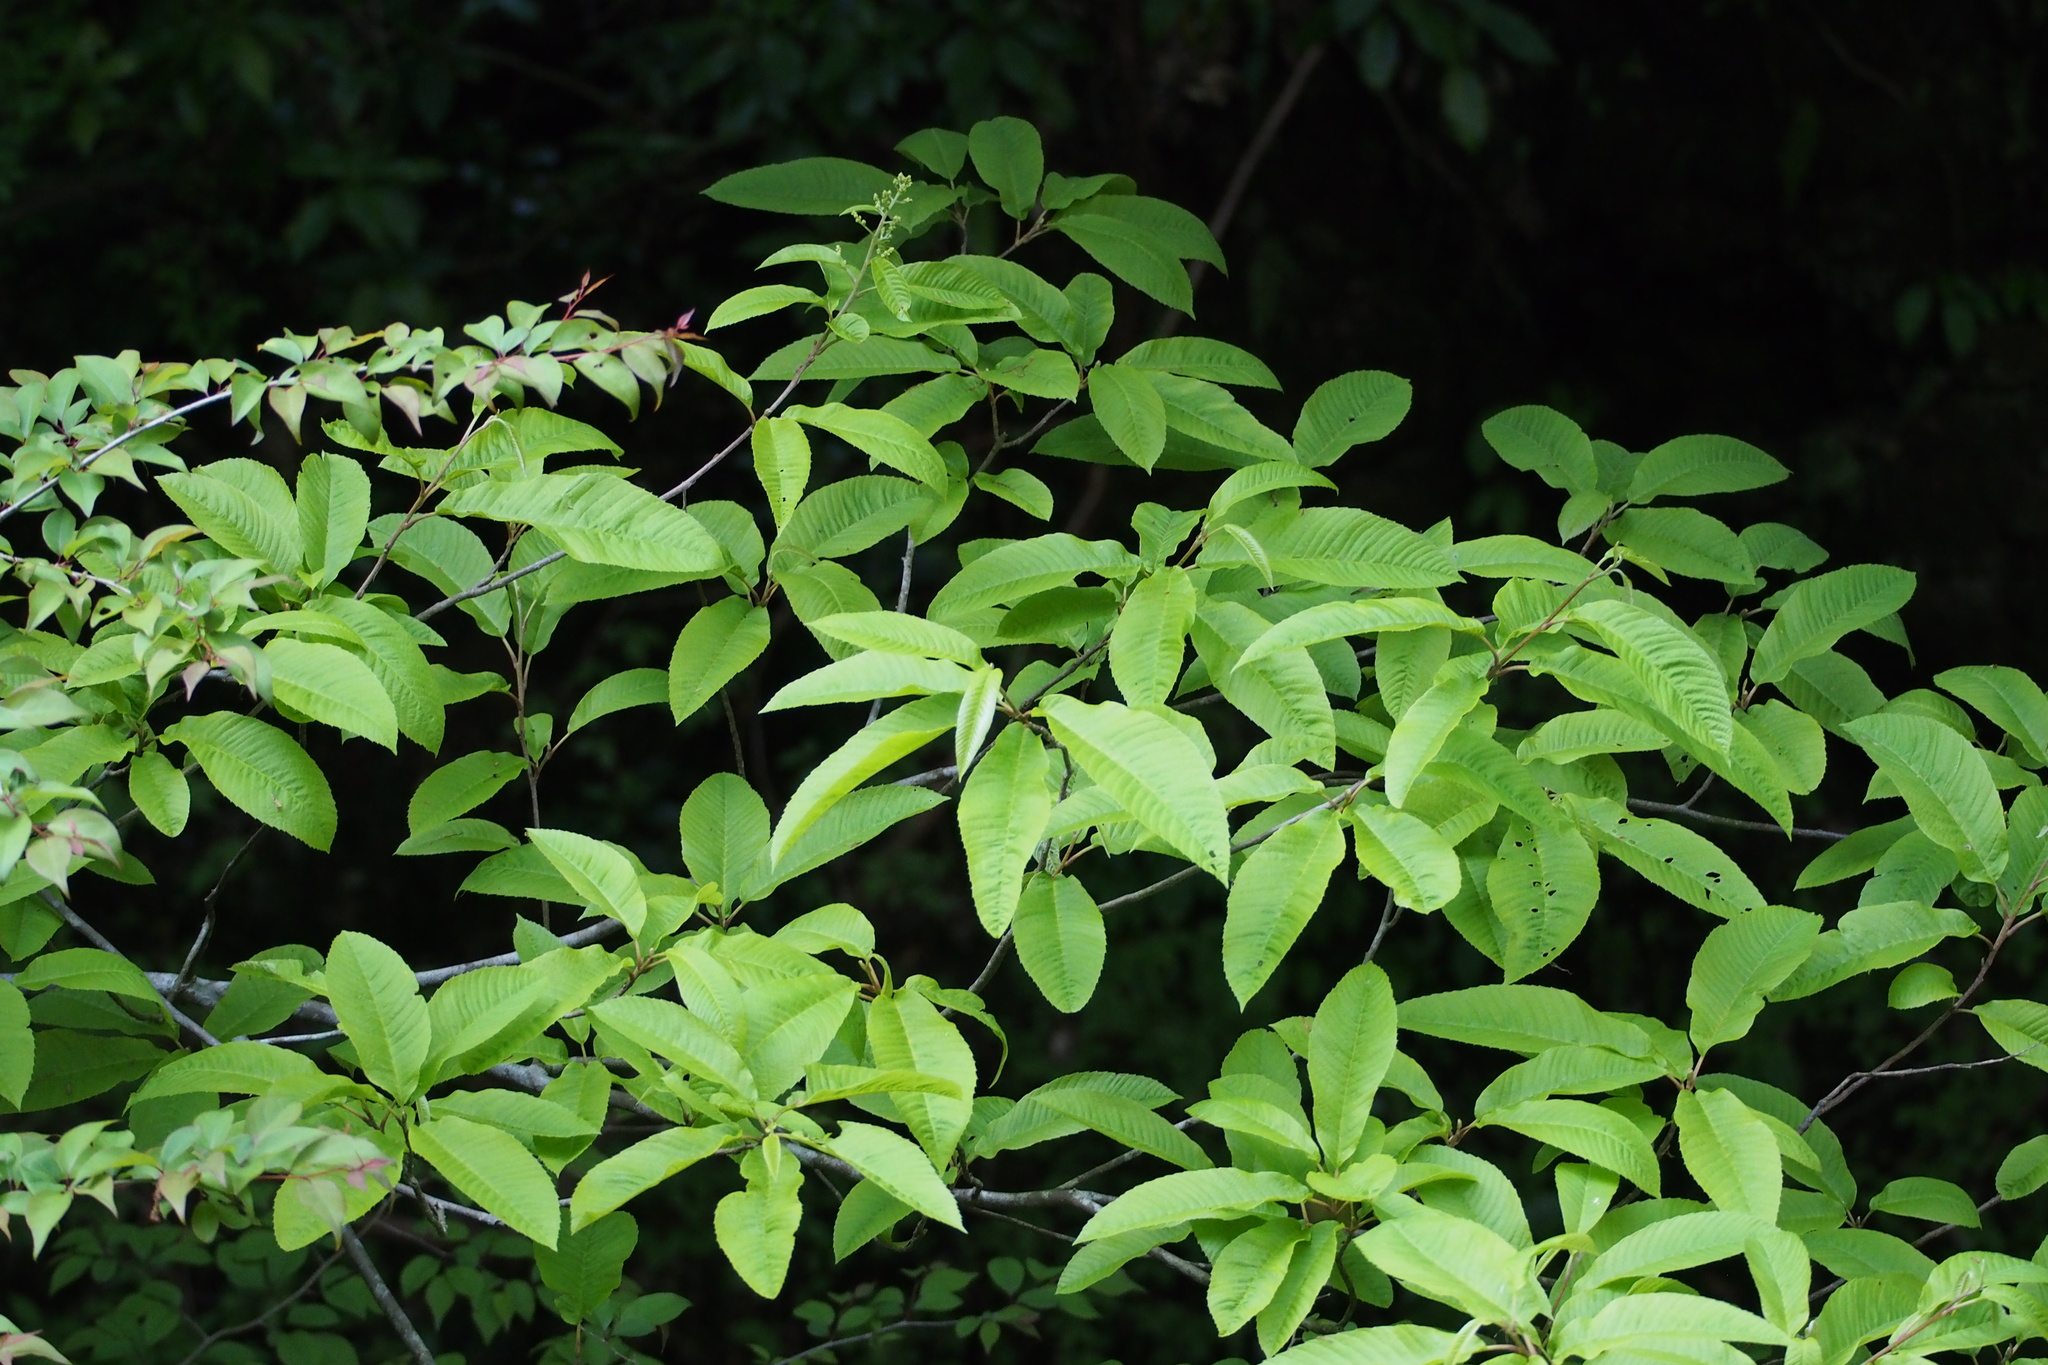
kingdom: Plantae
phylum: Tracheophyta
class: Magnoliopsida
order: Proteales
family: Sabiaceae
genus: Meliosma
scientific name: Meliosma myriantha
